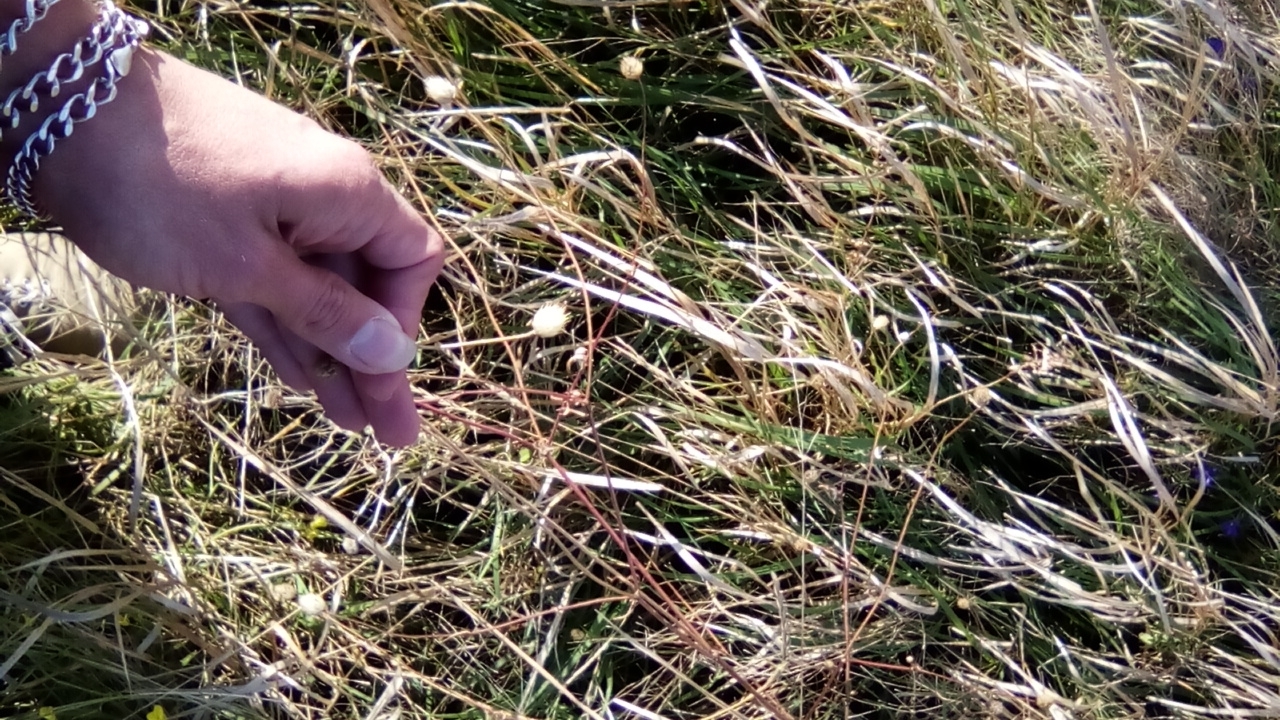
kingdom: Plantae
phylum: Tracheophyta
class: Magnoliopsida
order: Dipsacales
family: Caprifoliaceae
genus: Cephalaria
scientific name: Cephalaria transsylvanica
